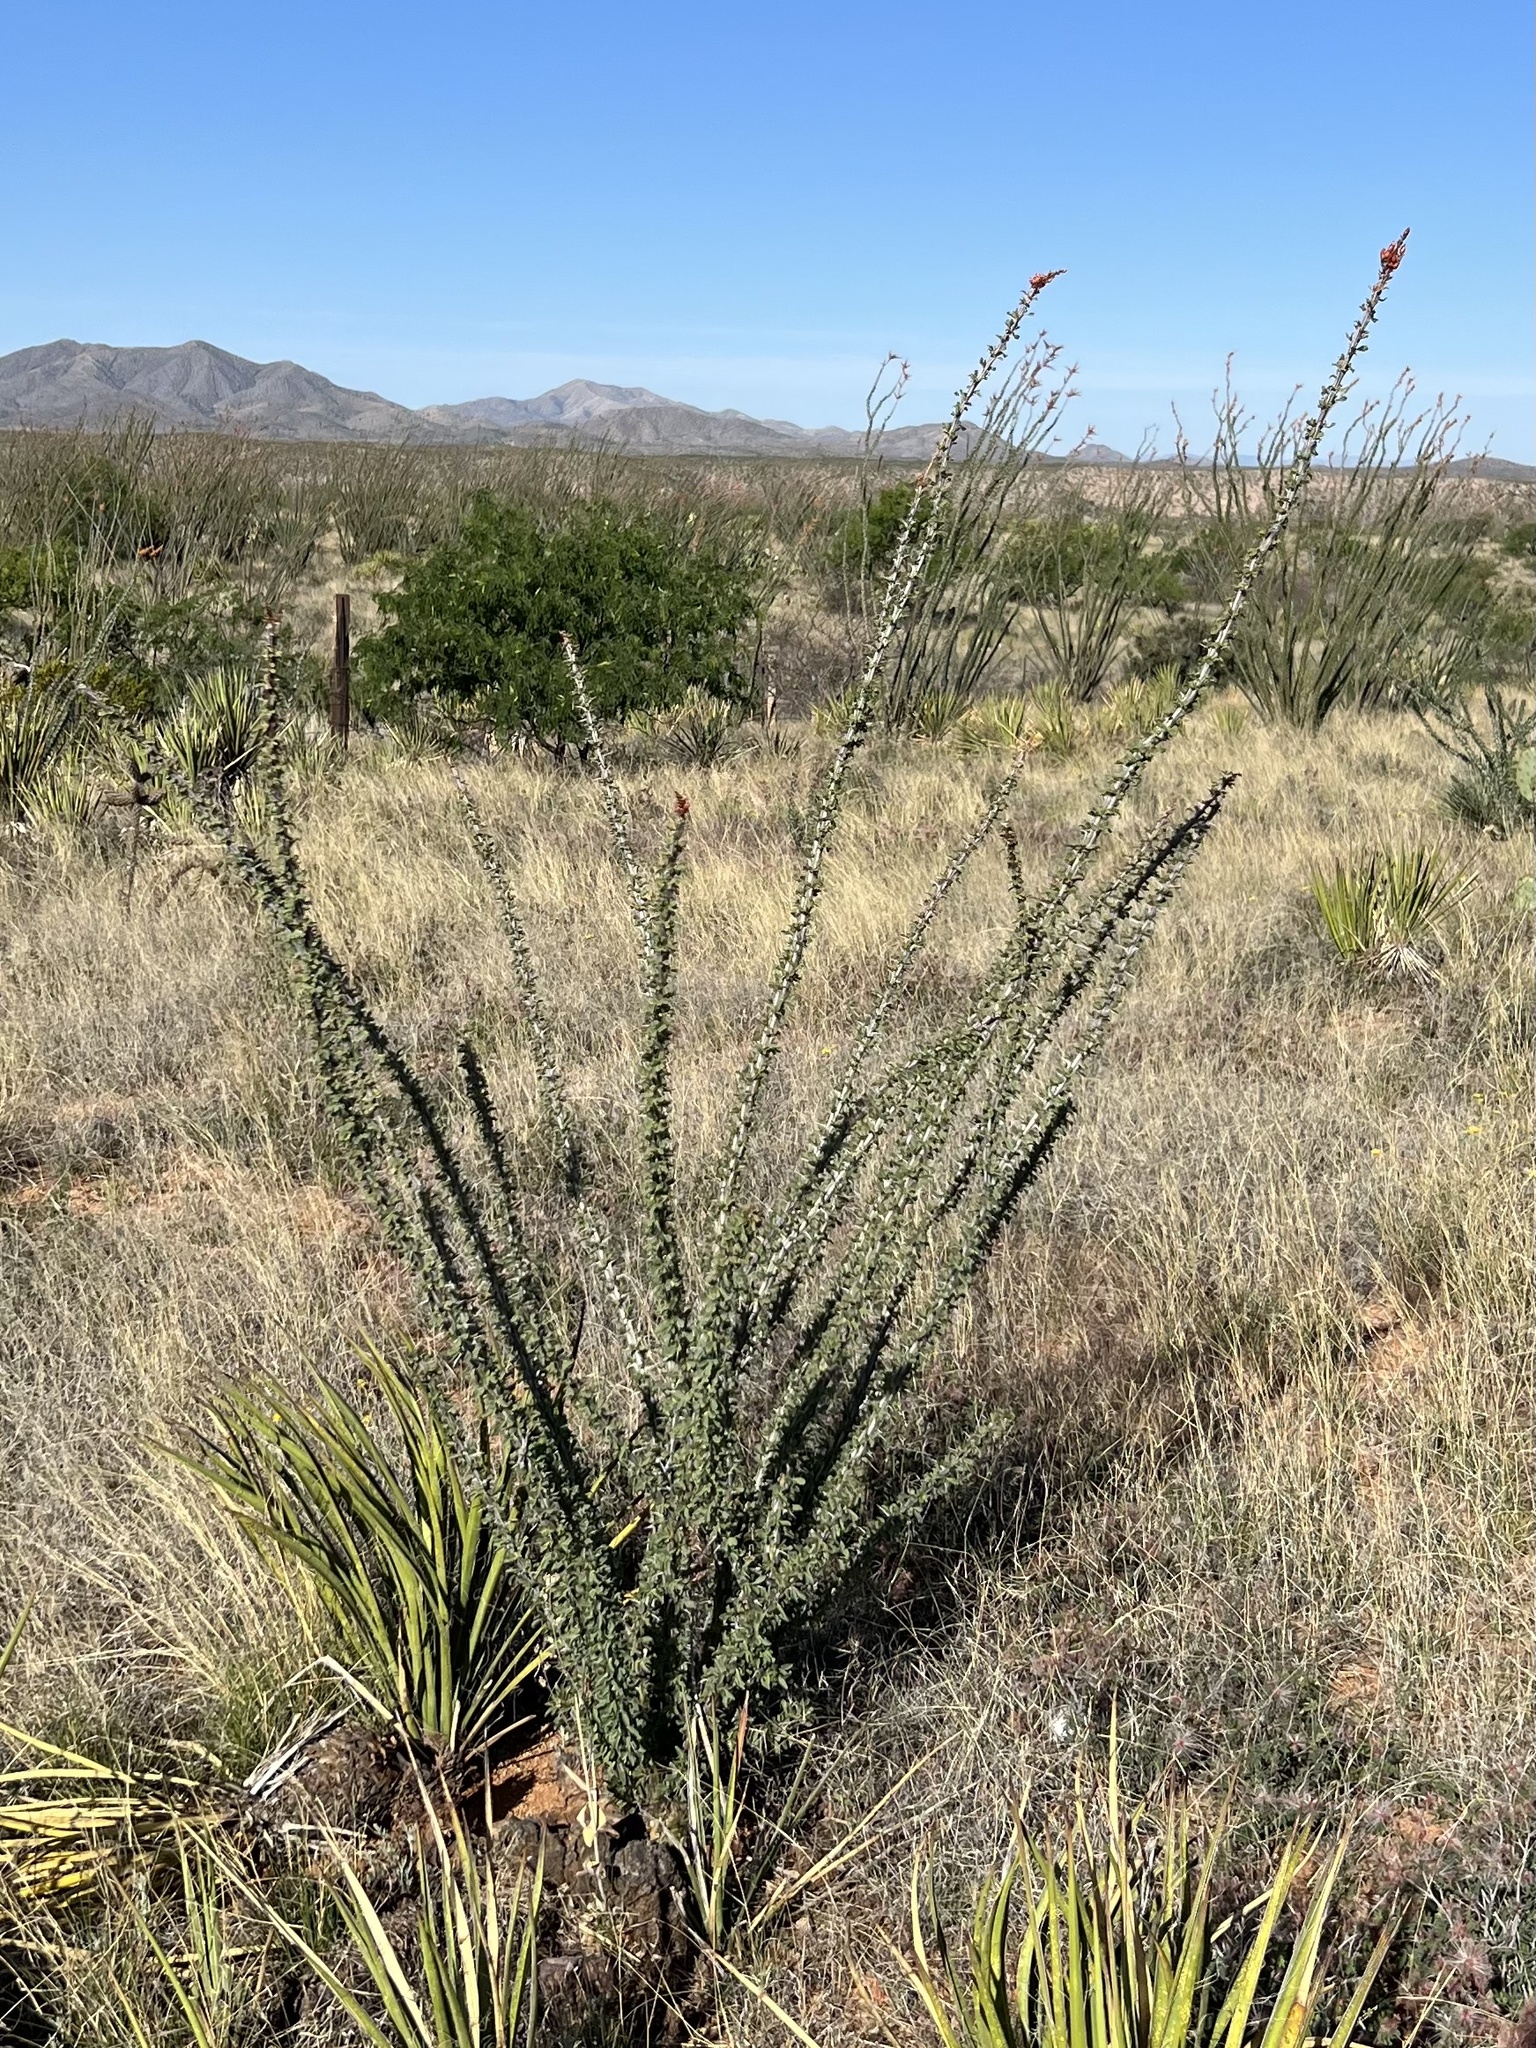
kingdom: Plantae
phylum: Tracheophyta
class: Magnoliopsida
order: Ericales
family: Fouquieriaceae
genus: Fouquieria
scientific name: Fouquieria splendens
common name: Vine-cactus
